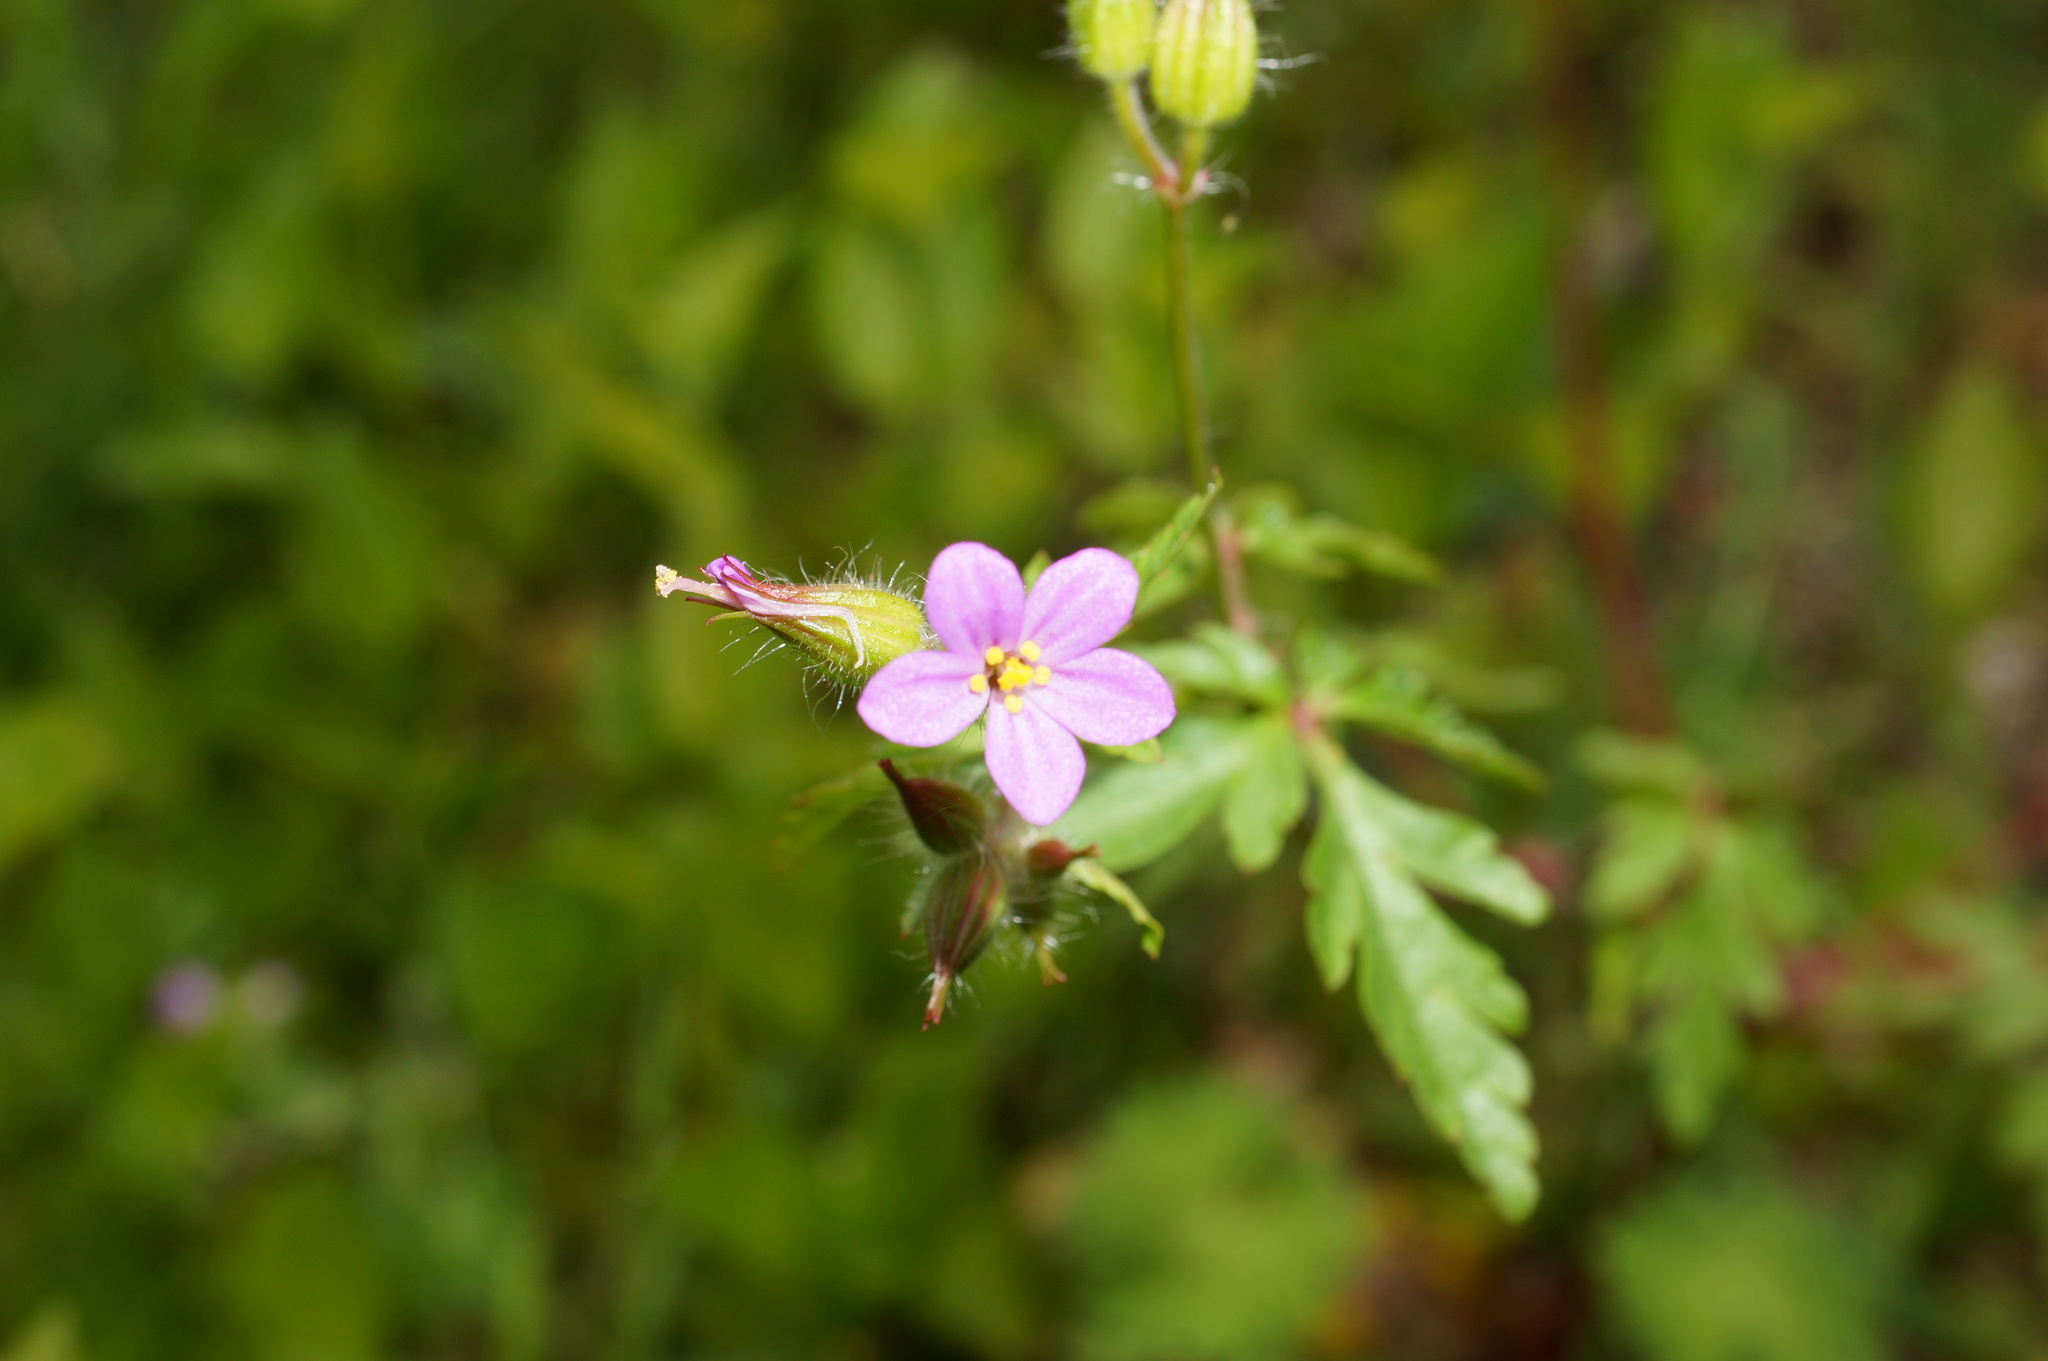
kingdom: Plantae
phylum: Tracheophyta
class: Magnoliopsida
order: Geraniales
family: Geraniaceae
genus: Geranium
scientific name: Geranium robertianum
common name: Herb-robert
